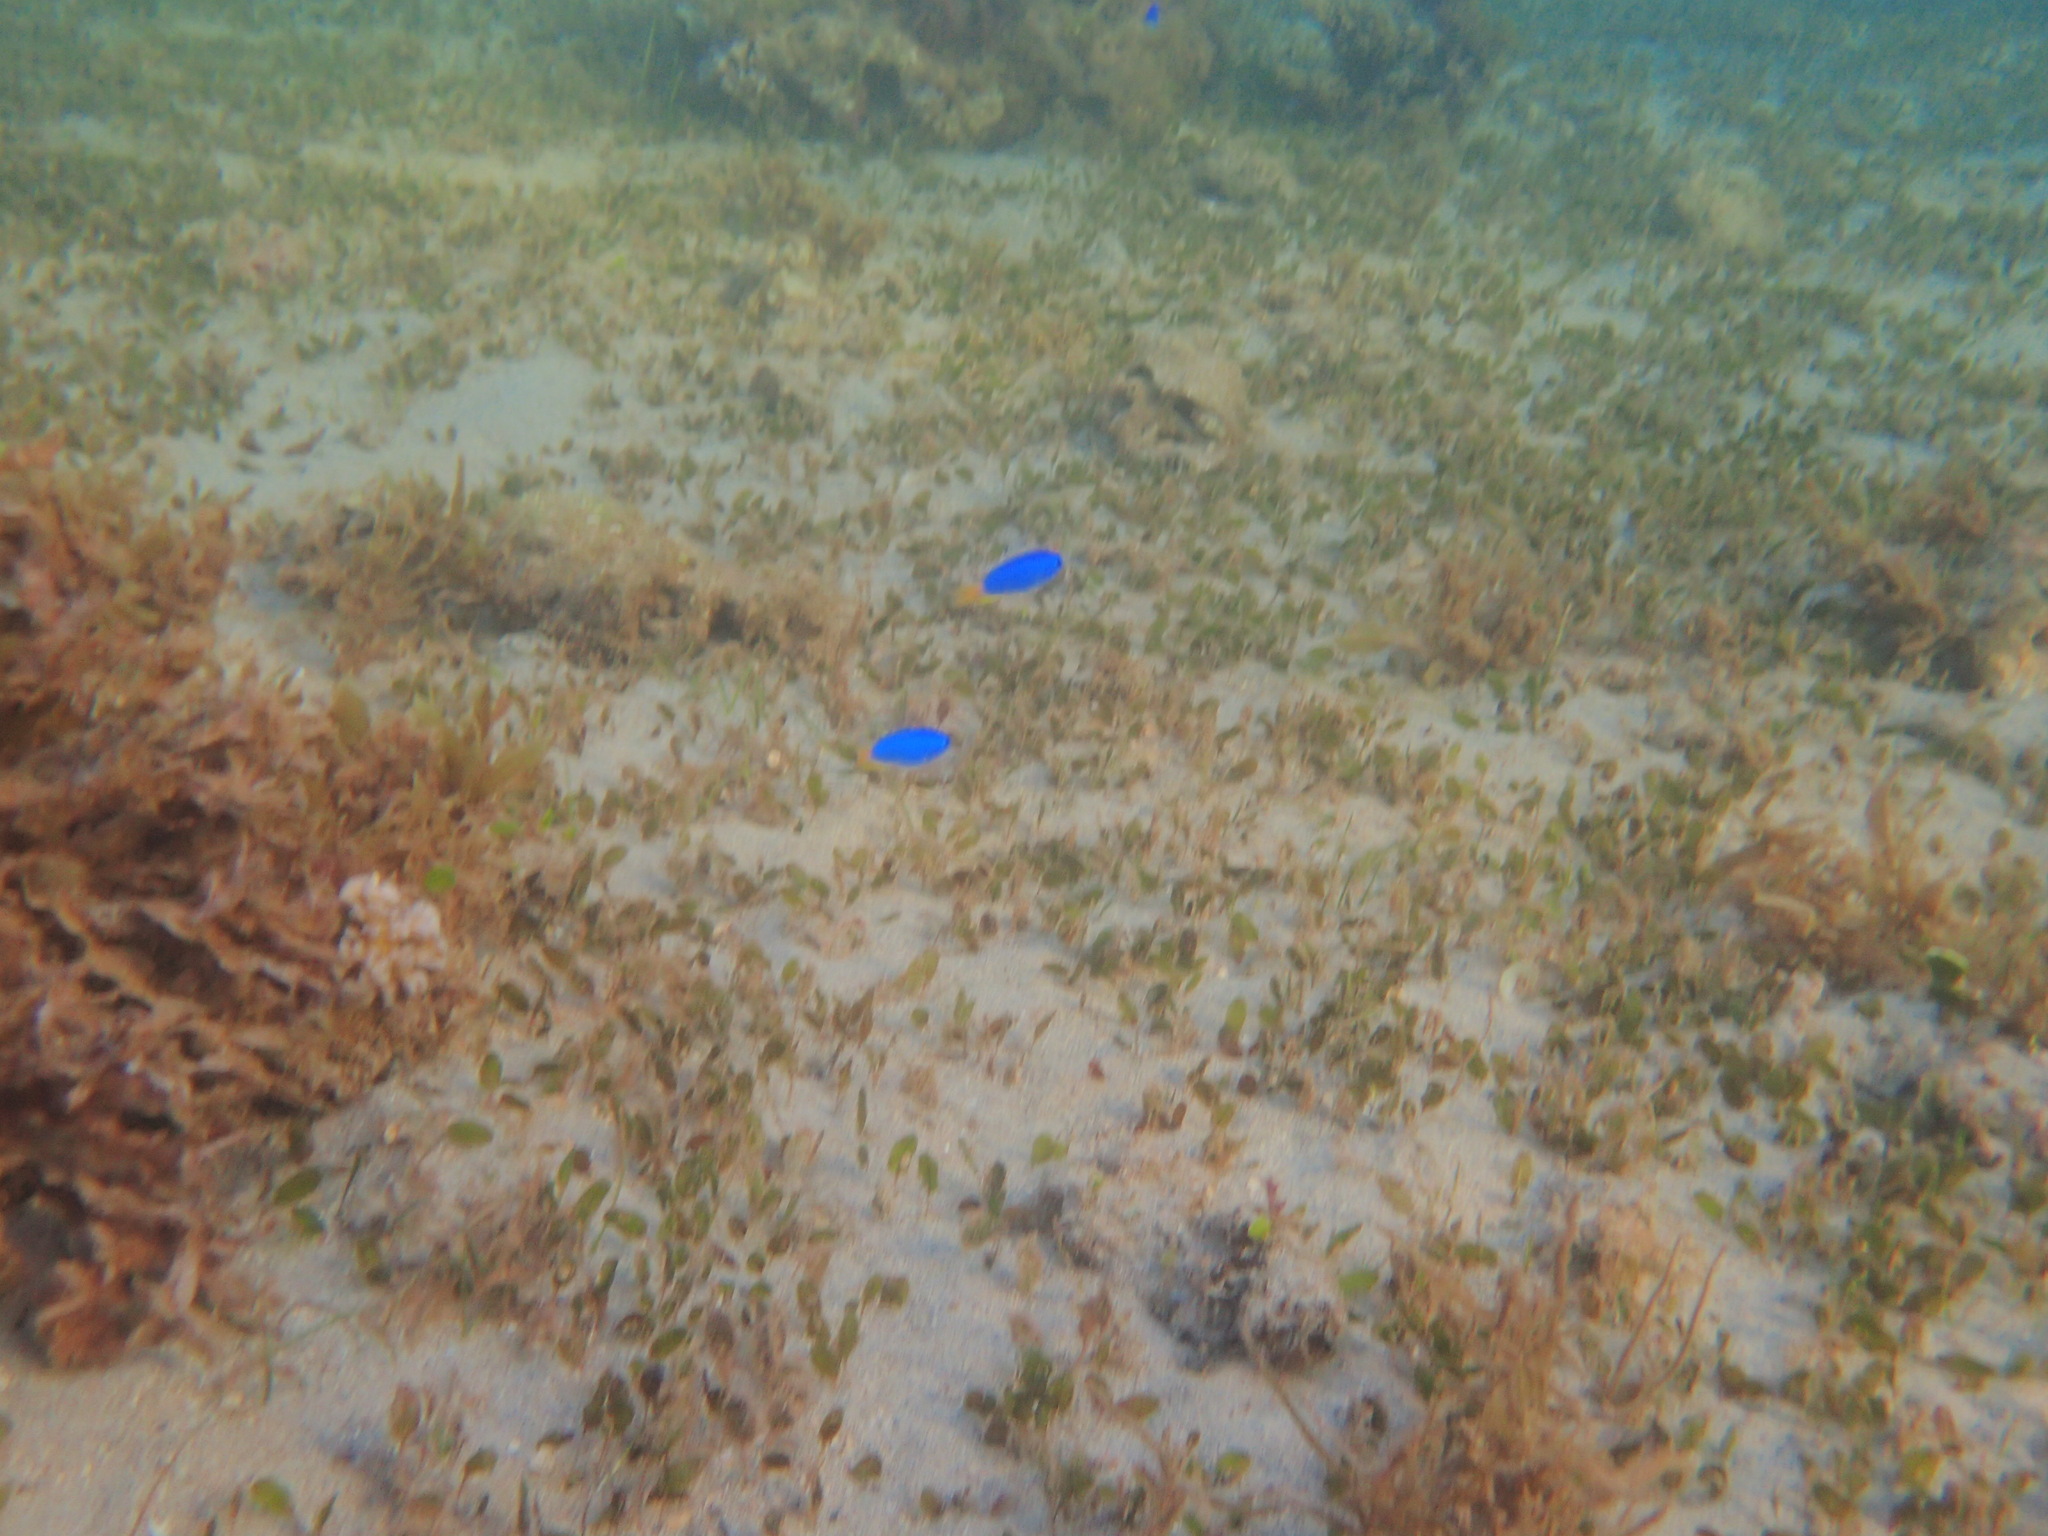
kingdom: Animalia
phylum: Chordata
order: Perciformes
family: Pomacentridae
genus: Pomacentrus
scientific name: Pomacentrus coelestis
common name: Neon damsel
